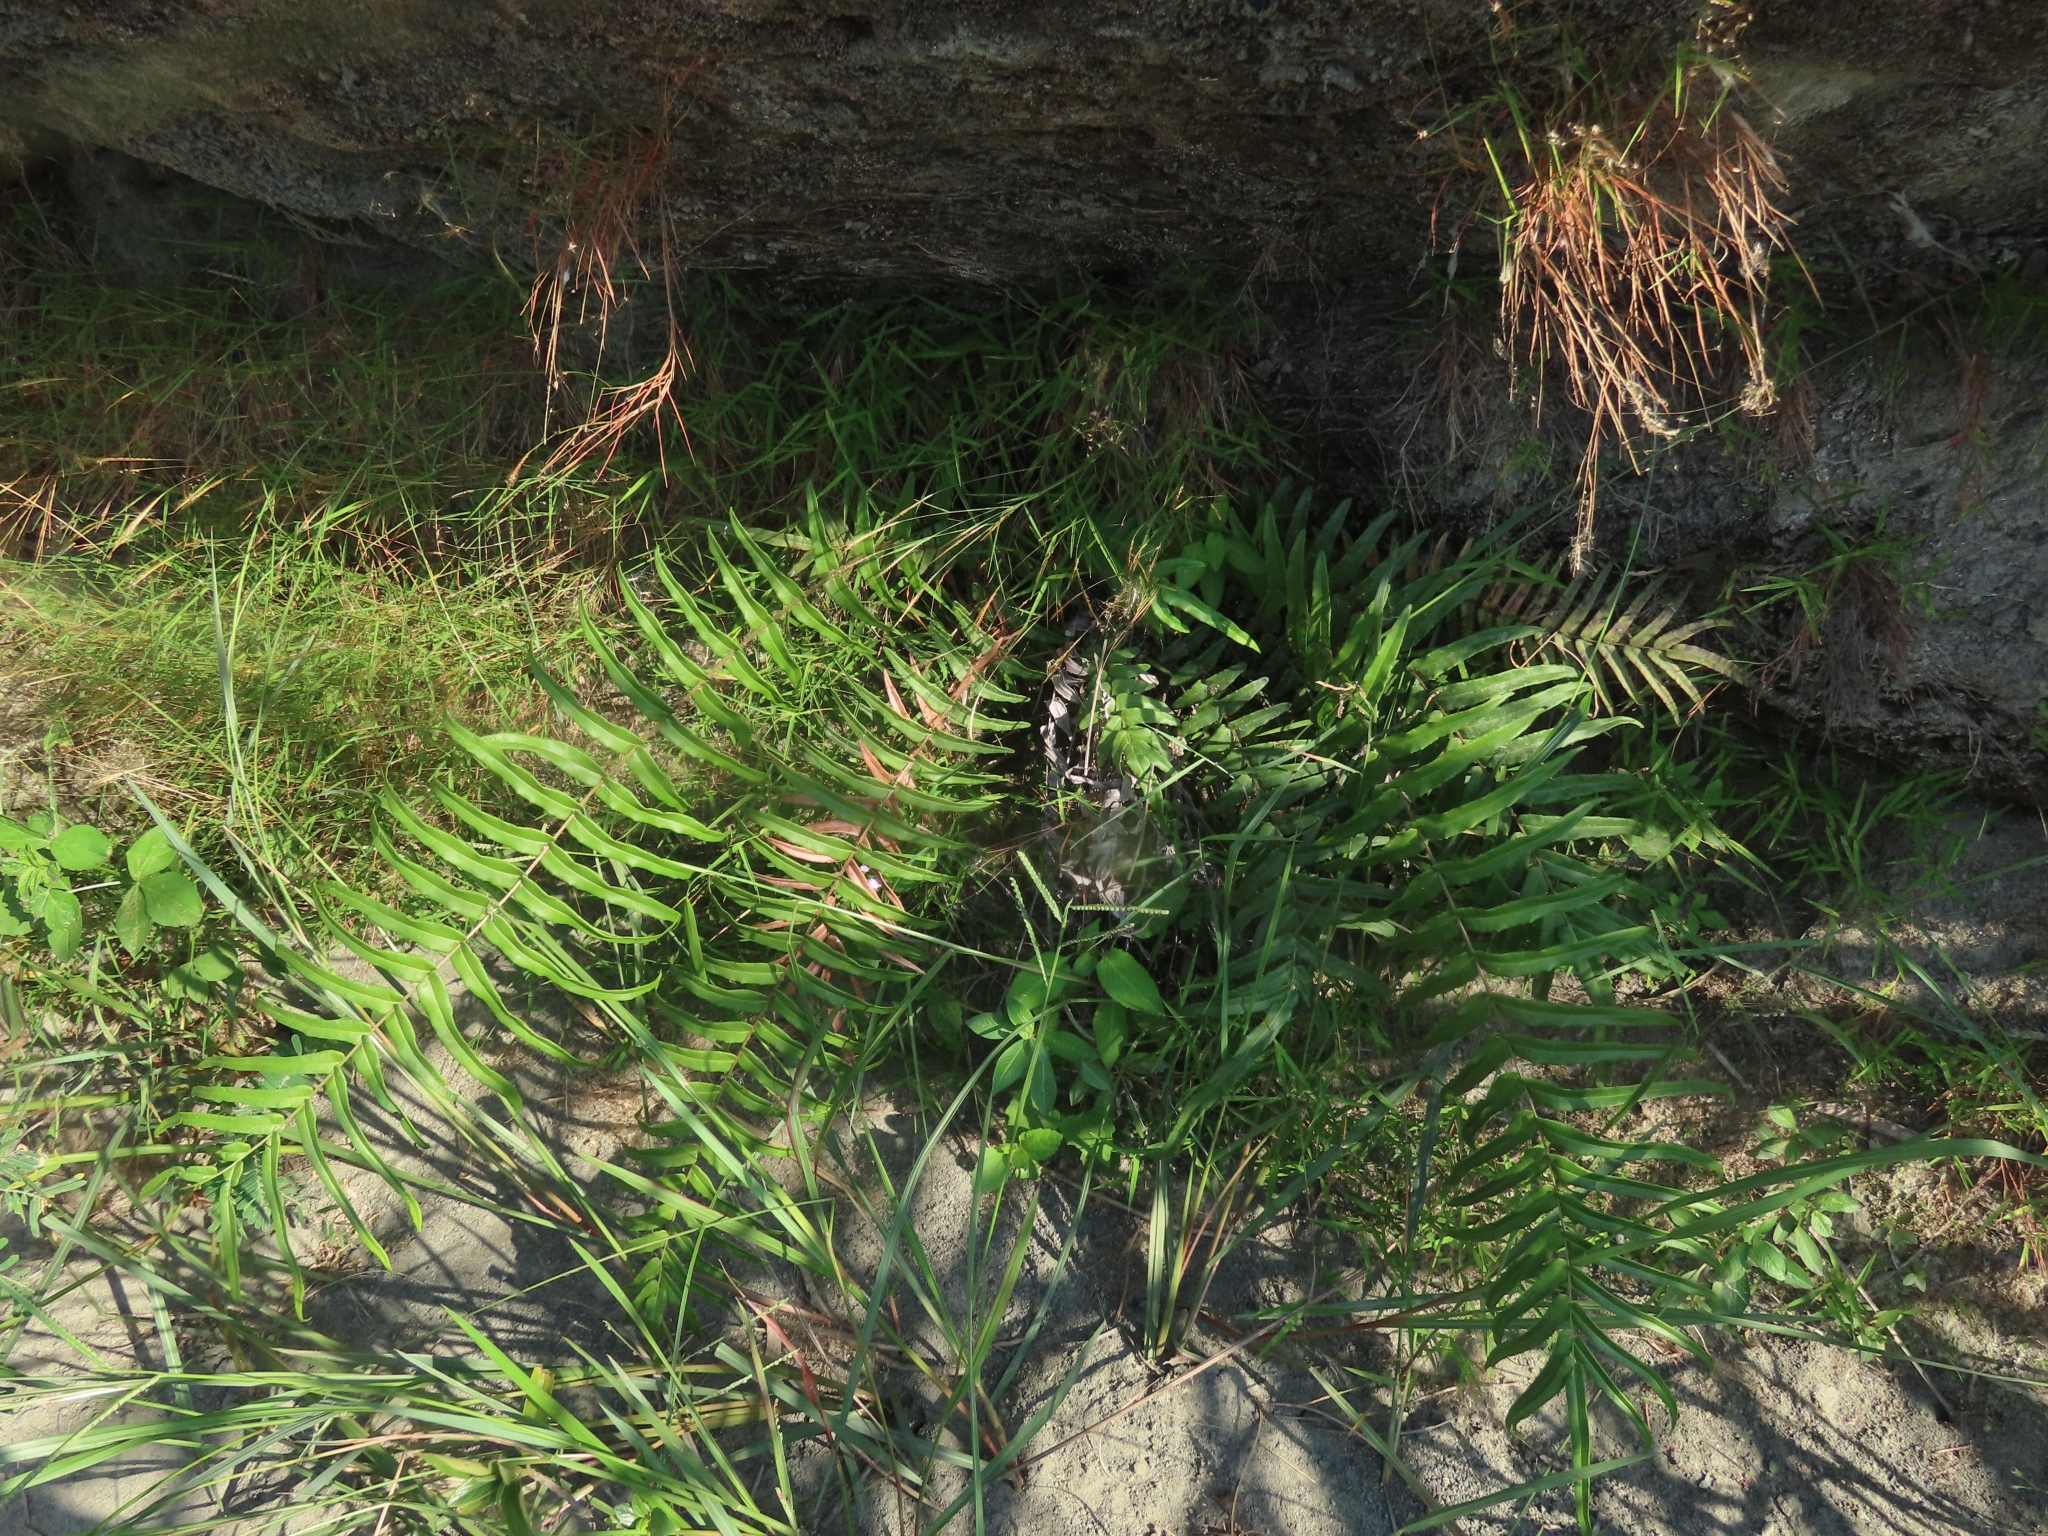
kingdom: Plantae
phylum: Tracheophyta
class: Polypodiopsida
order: Polypodiales
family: Pteridaceae
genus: Pteris
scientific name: Pteris vittata
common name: Ladder brake
